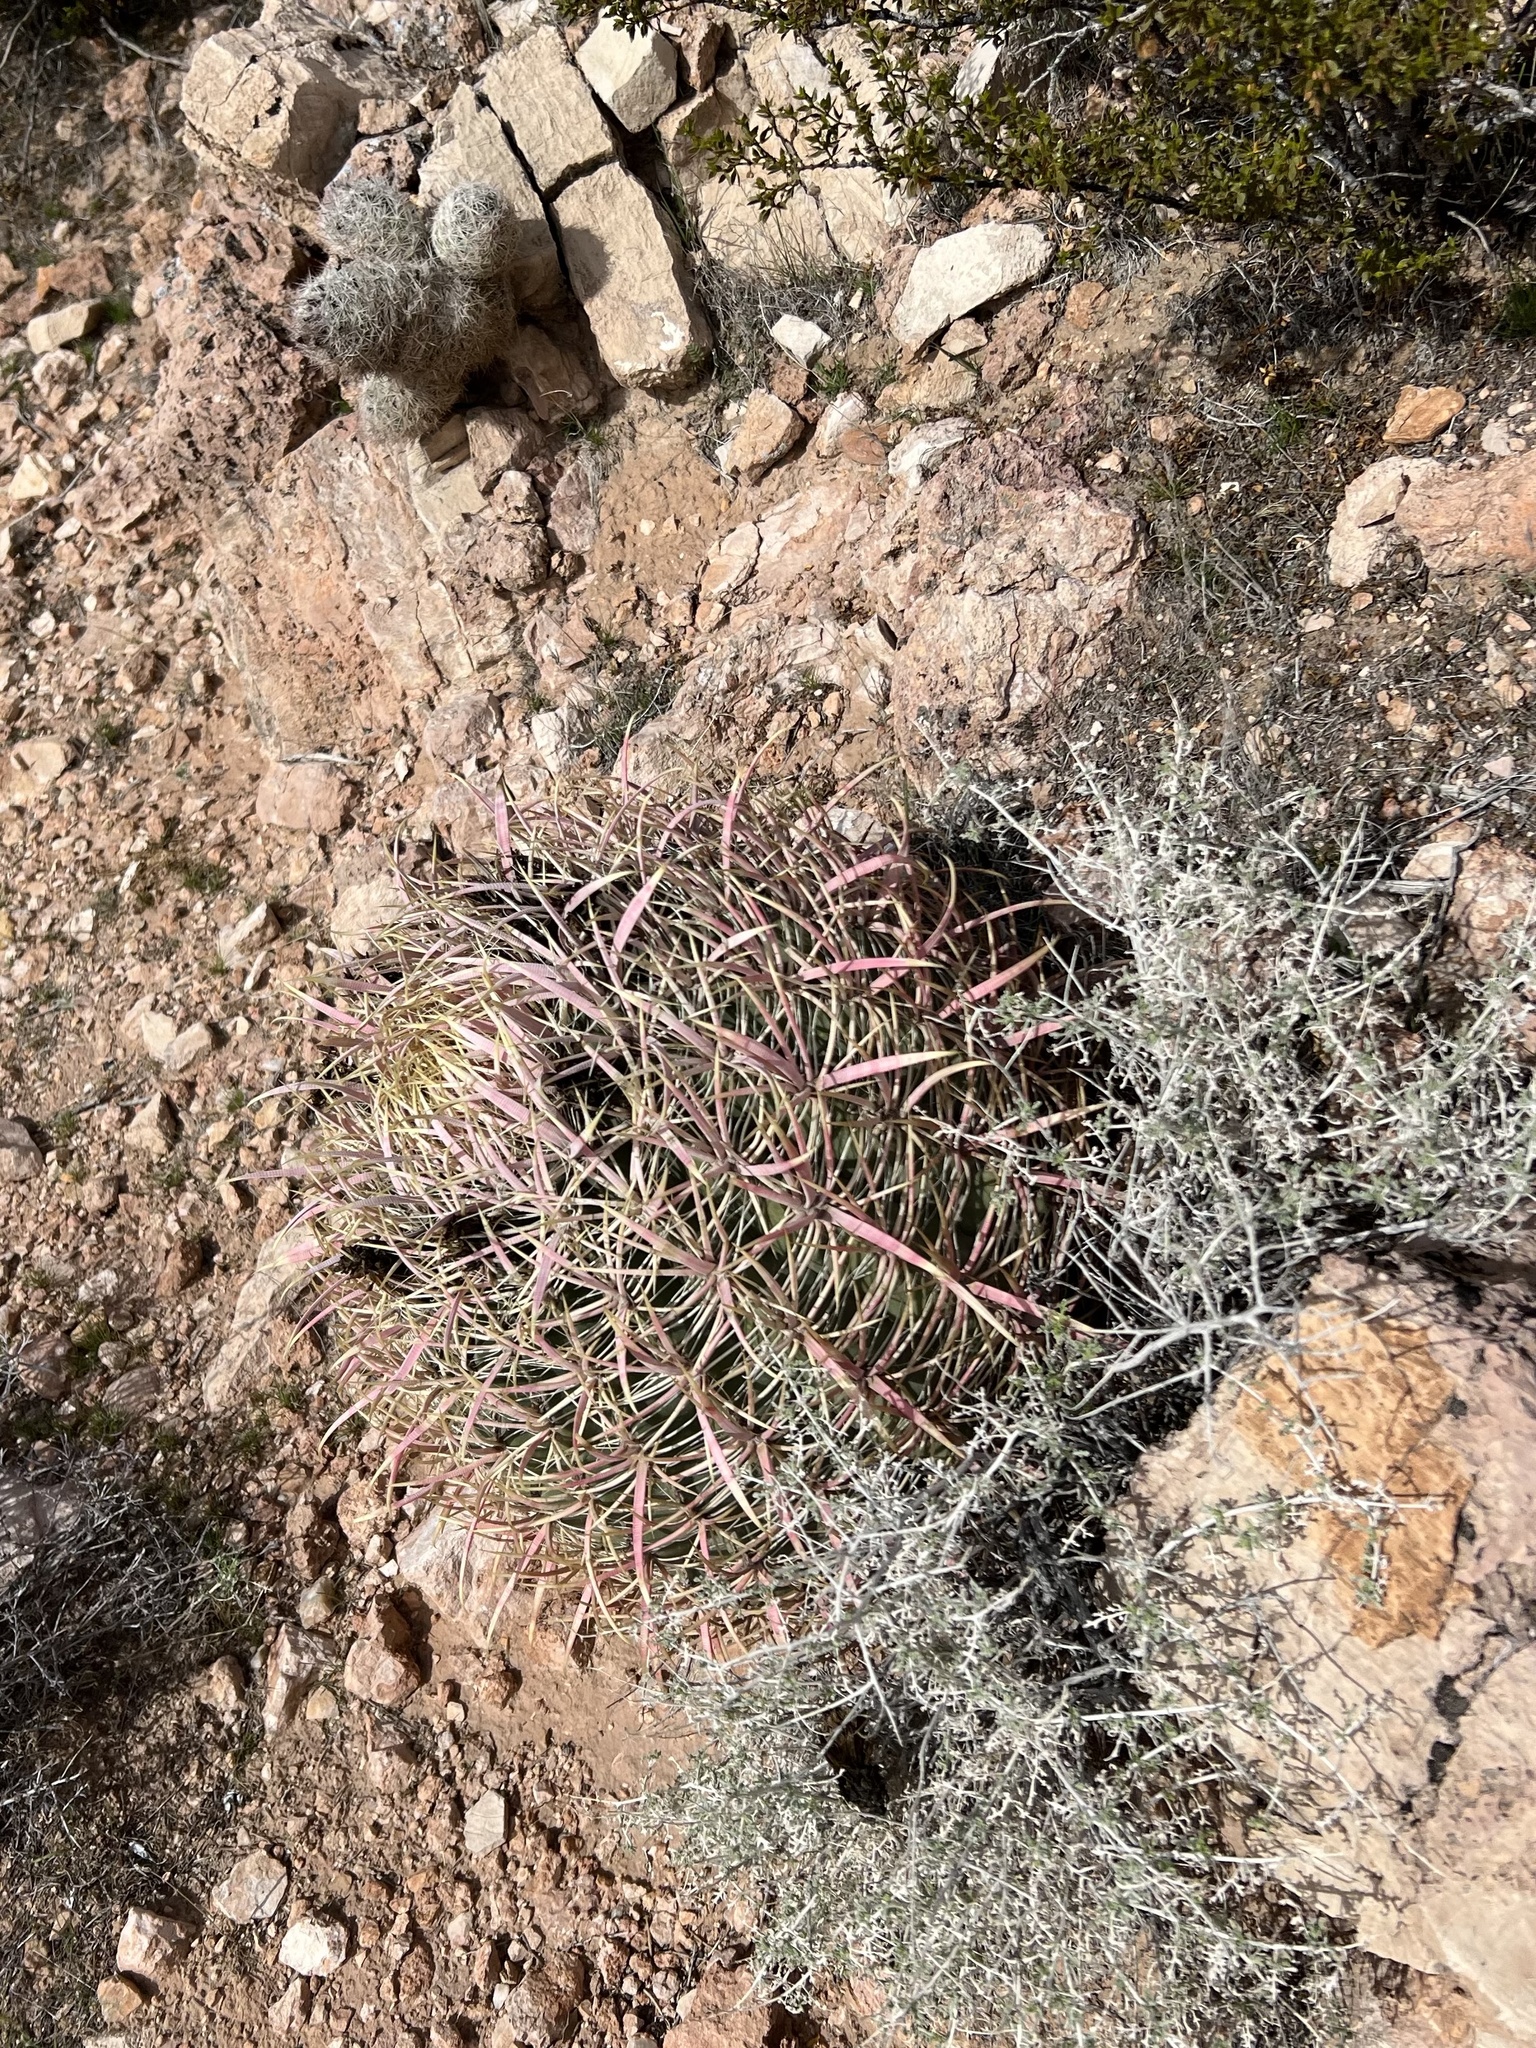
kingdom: Plantae
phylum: Tracheophyta
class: Magnoliopsida
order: Caryophyllales
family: Cactaceae
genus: Ferocactus
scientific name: Ferocactus cylindraceus
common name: California barrel cactus
